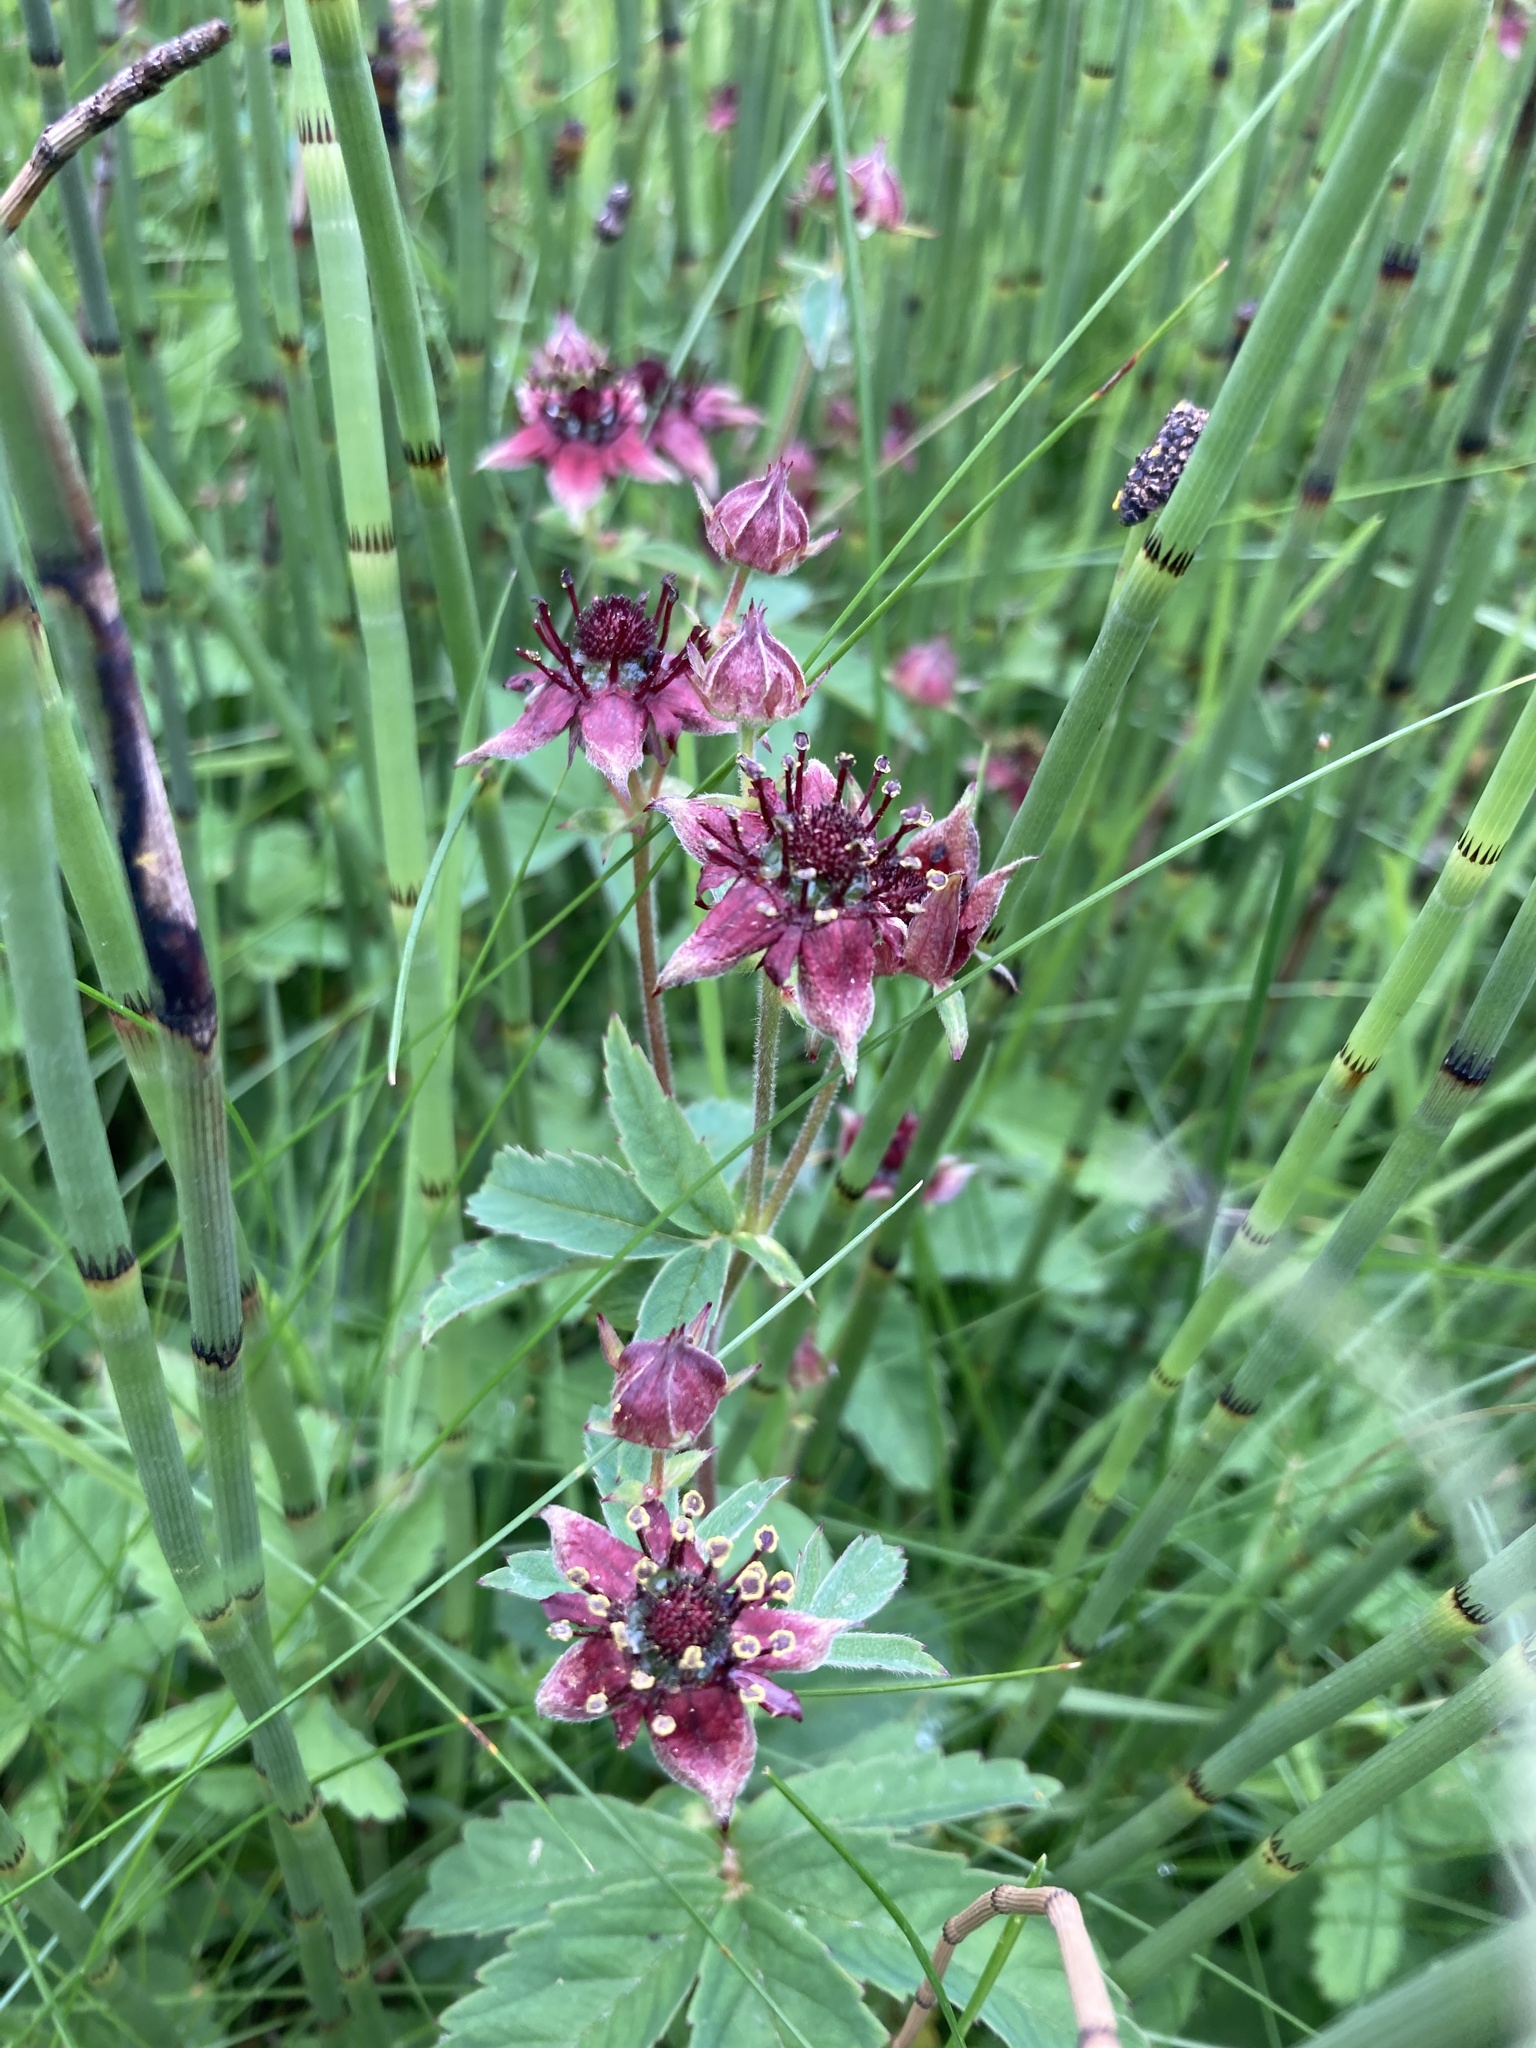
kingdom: Plantae
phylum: Tracheophyta
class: Magnoliopsida
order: Rosales
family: Rosaceae
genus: Comarum
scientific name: Comarum palustre
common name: Marsh cinquefoil
